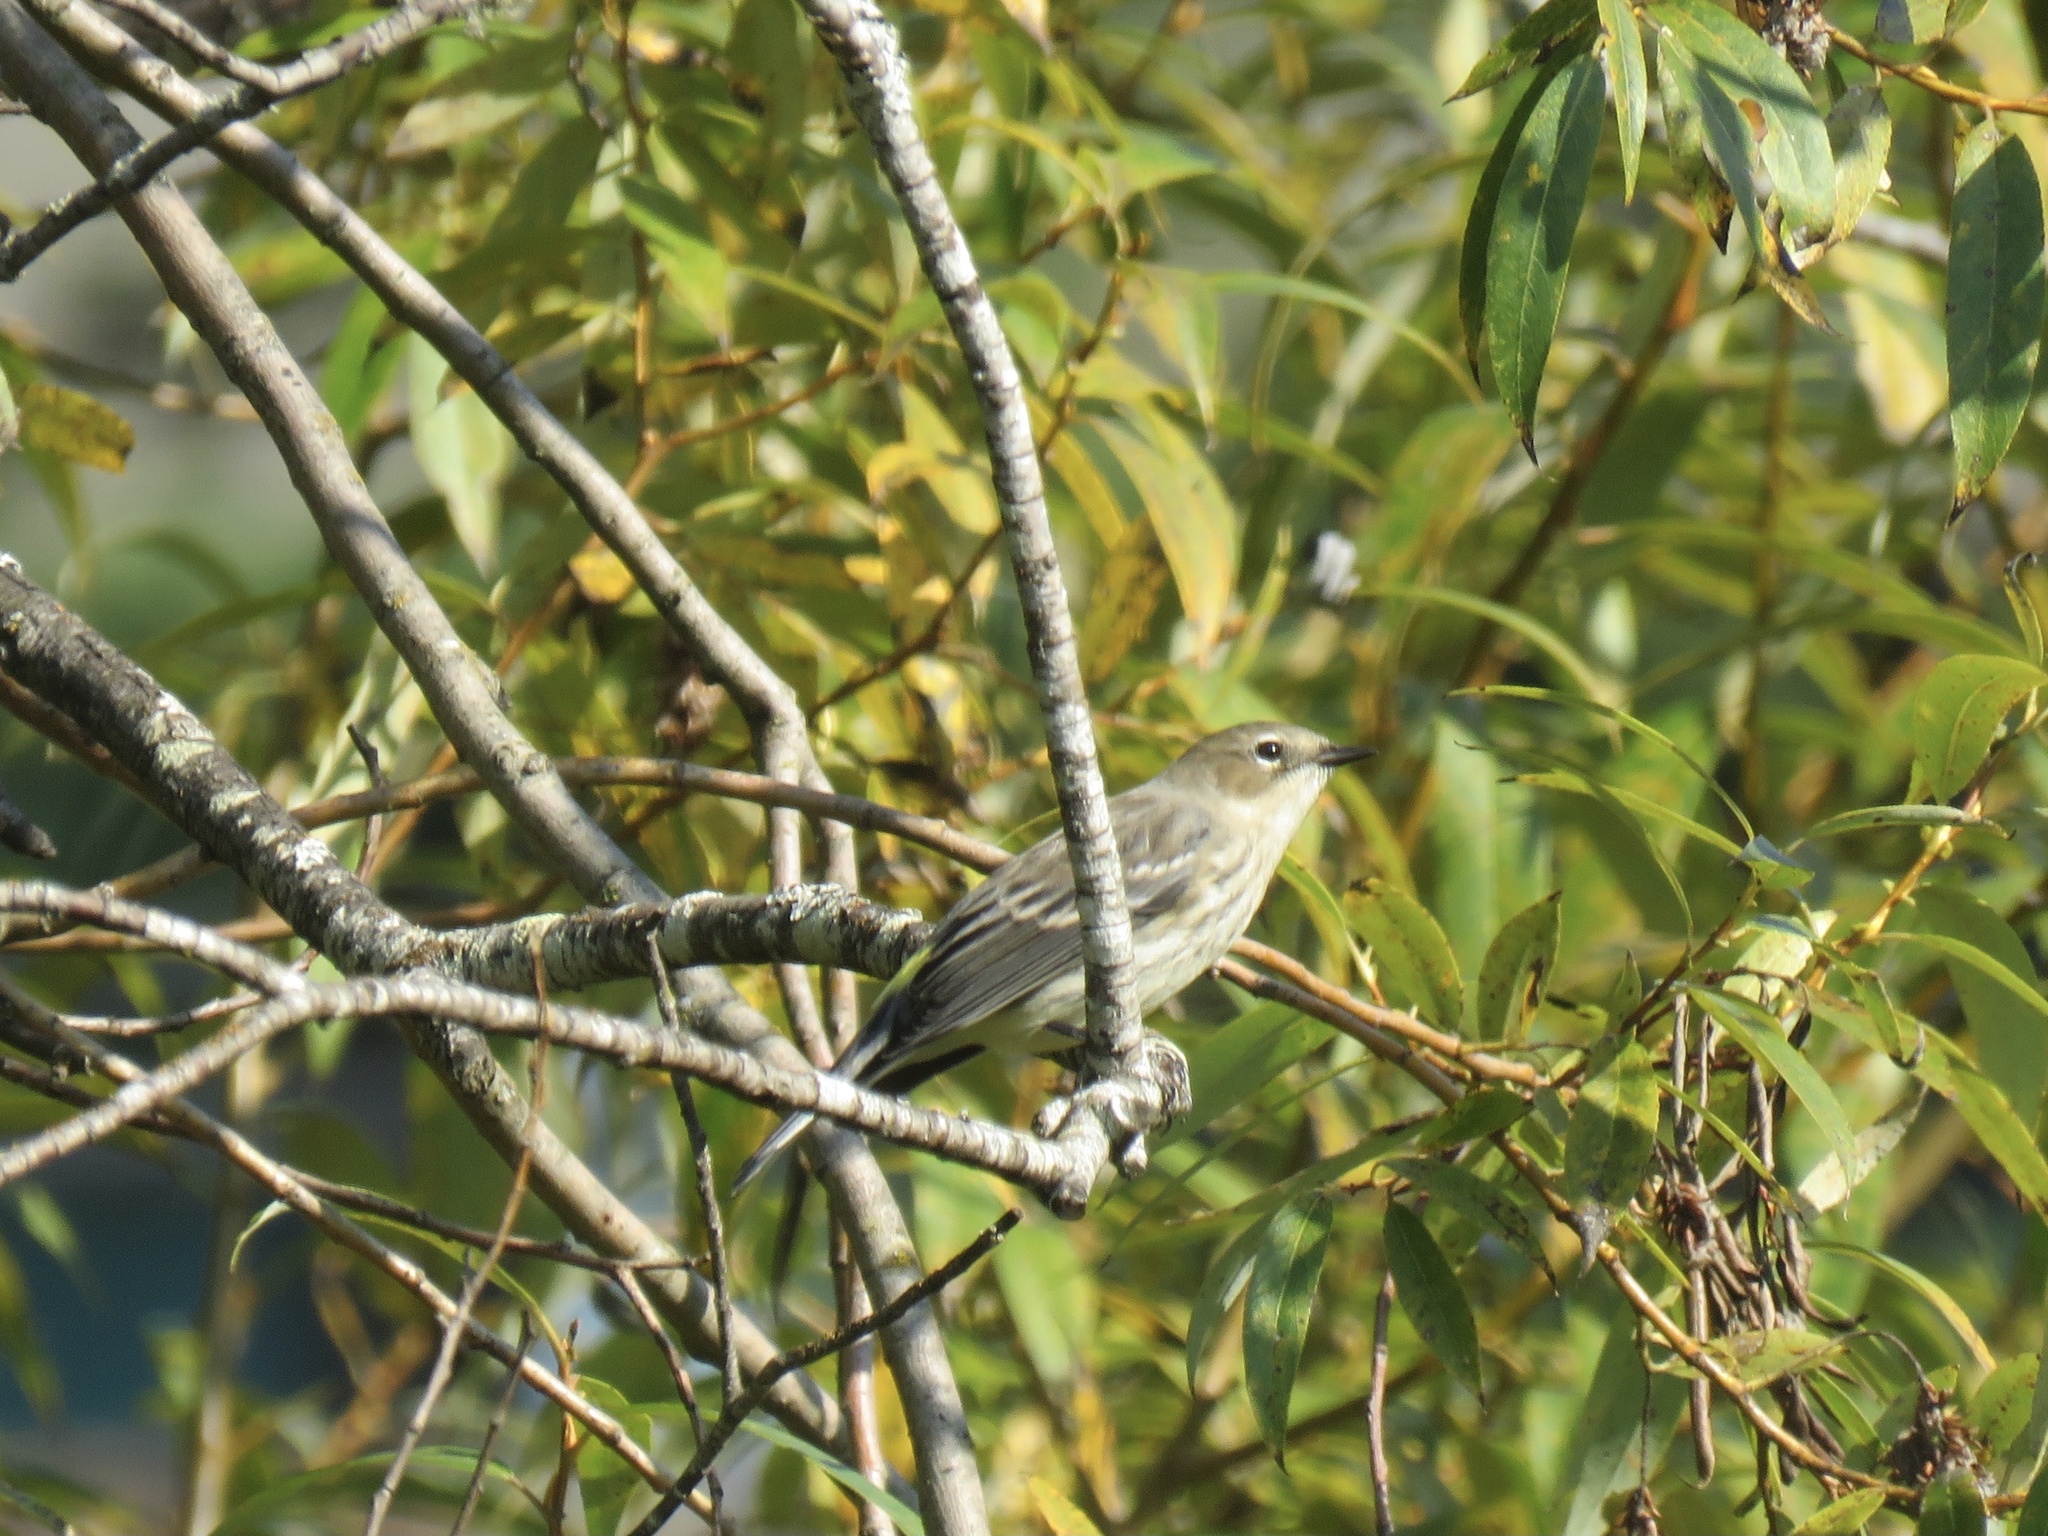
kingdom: Animalia
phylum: Chordata
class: Aves
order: Passeriformes
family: Parulidae
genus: Setophaga
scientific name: Setophaga coronata
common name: Myrtle warbler
